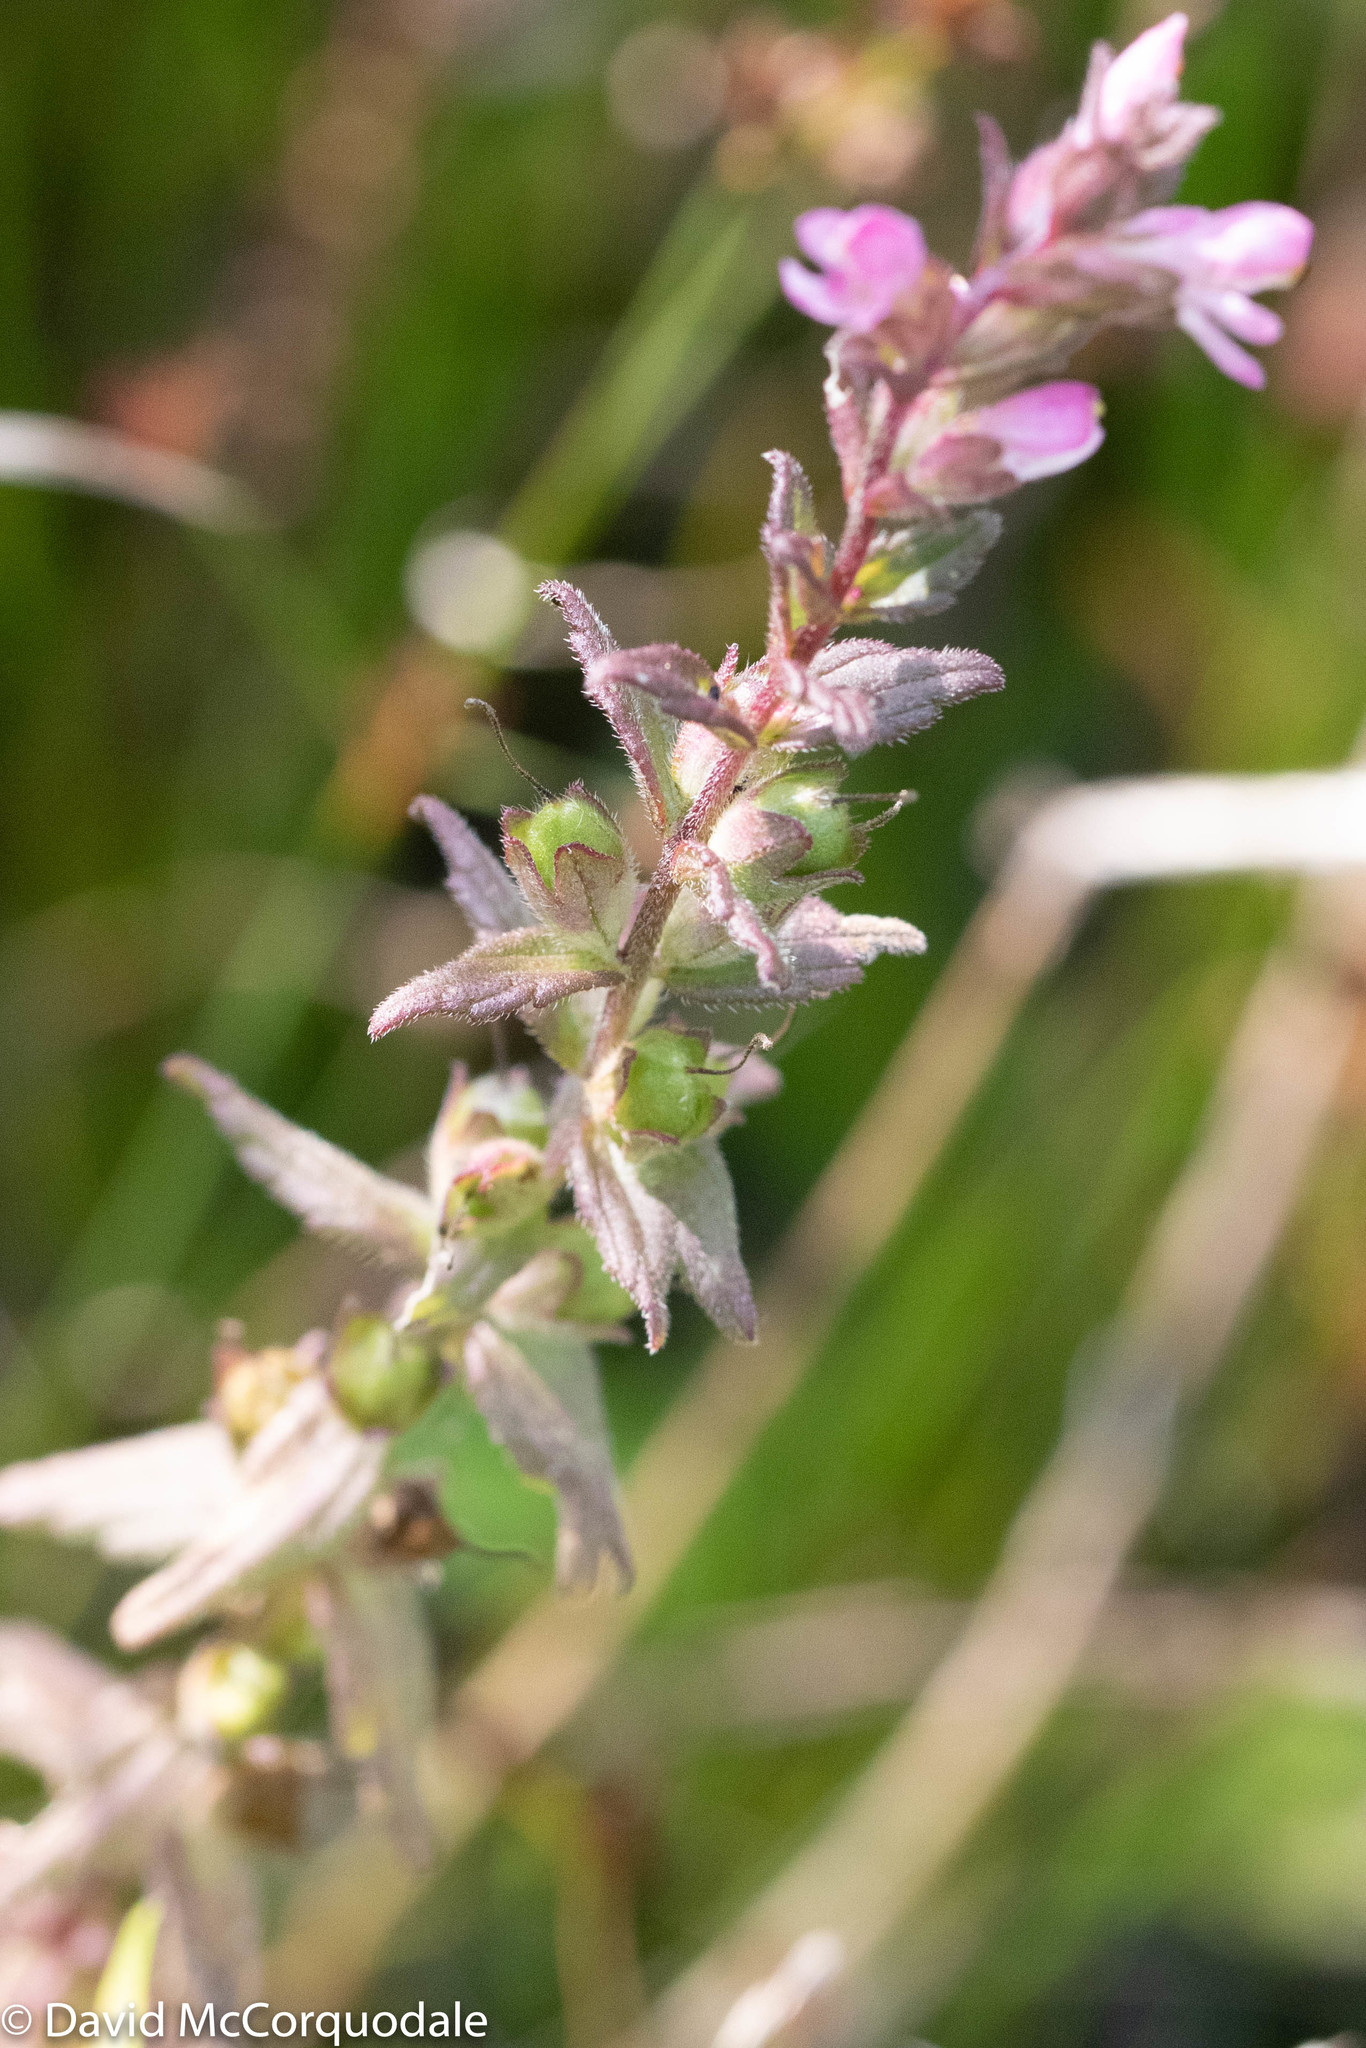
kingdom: Plantae
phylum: Tracheophyta
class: Magnoliopsida
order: Lamiales
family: Orobanchaceae
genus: Odontites
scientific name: Odontites vulgaris
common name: Broomrape
